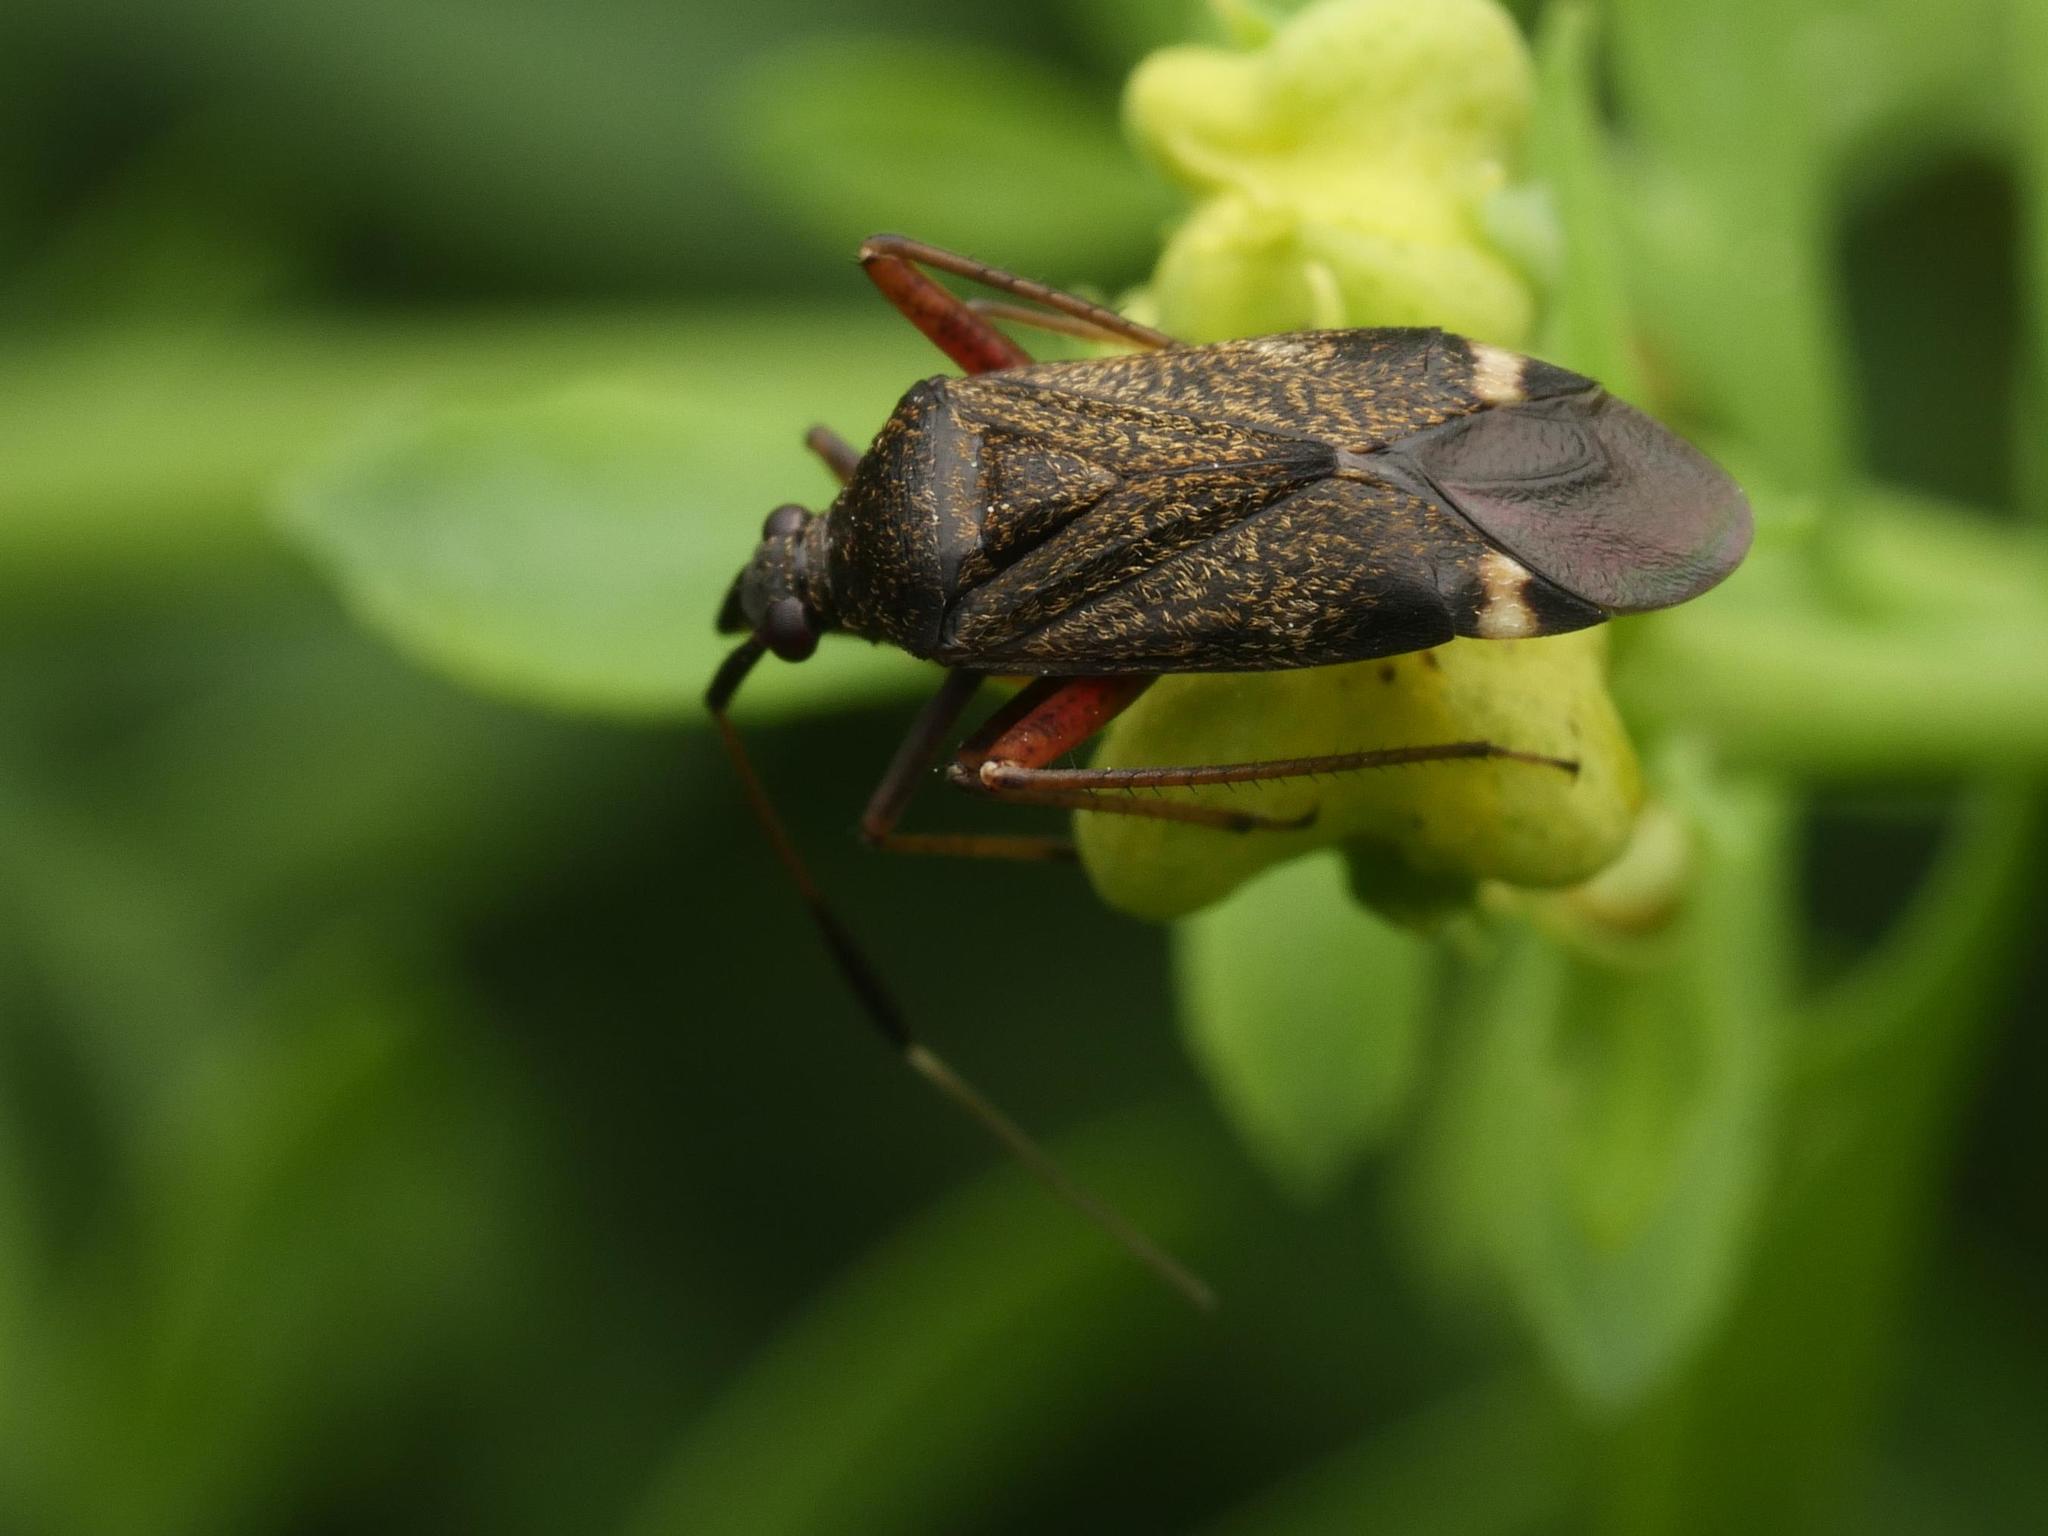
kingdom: Animalia
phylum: Arthropoda
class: Insecta
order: Hemiptera
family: Miridae
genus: Closterotomus
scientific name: Closterotomus biclavatus
